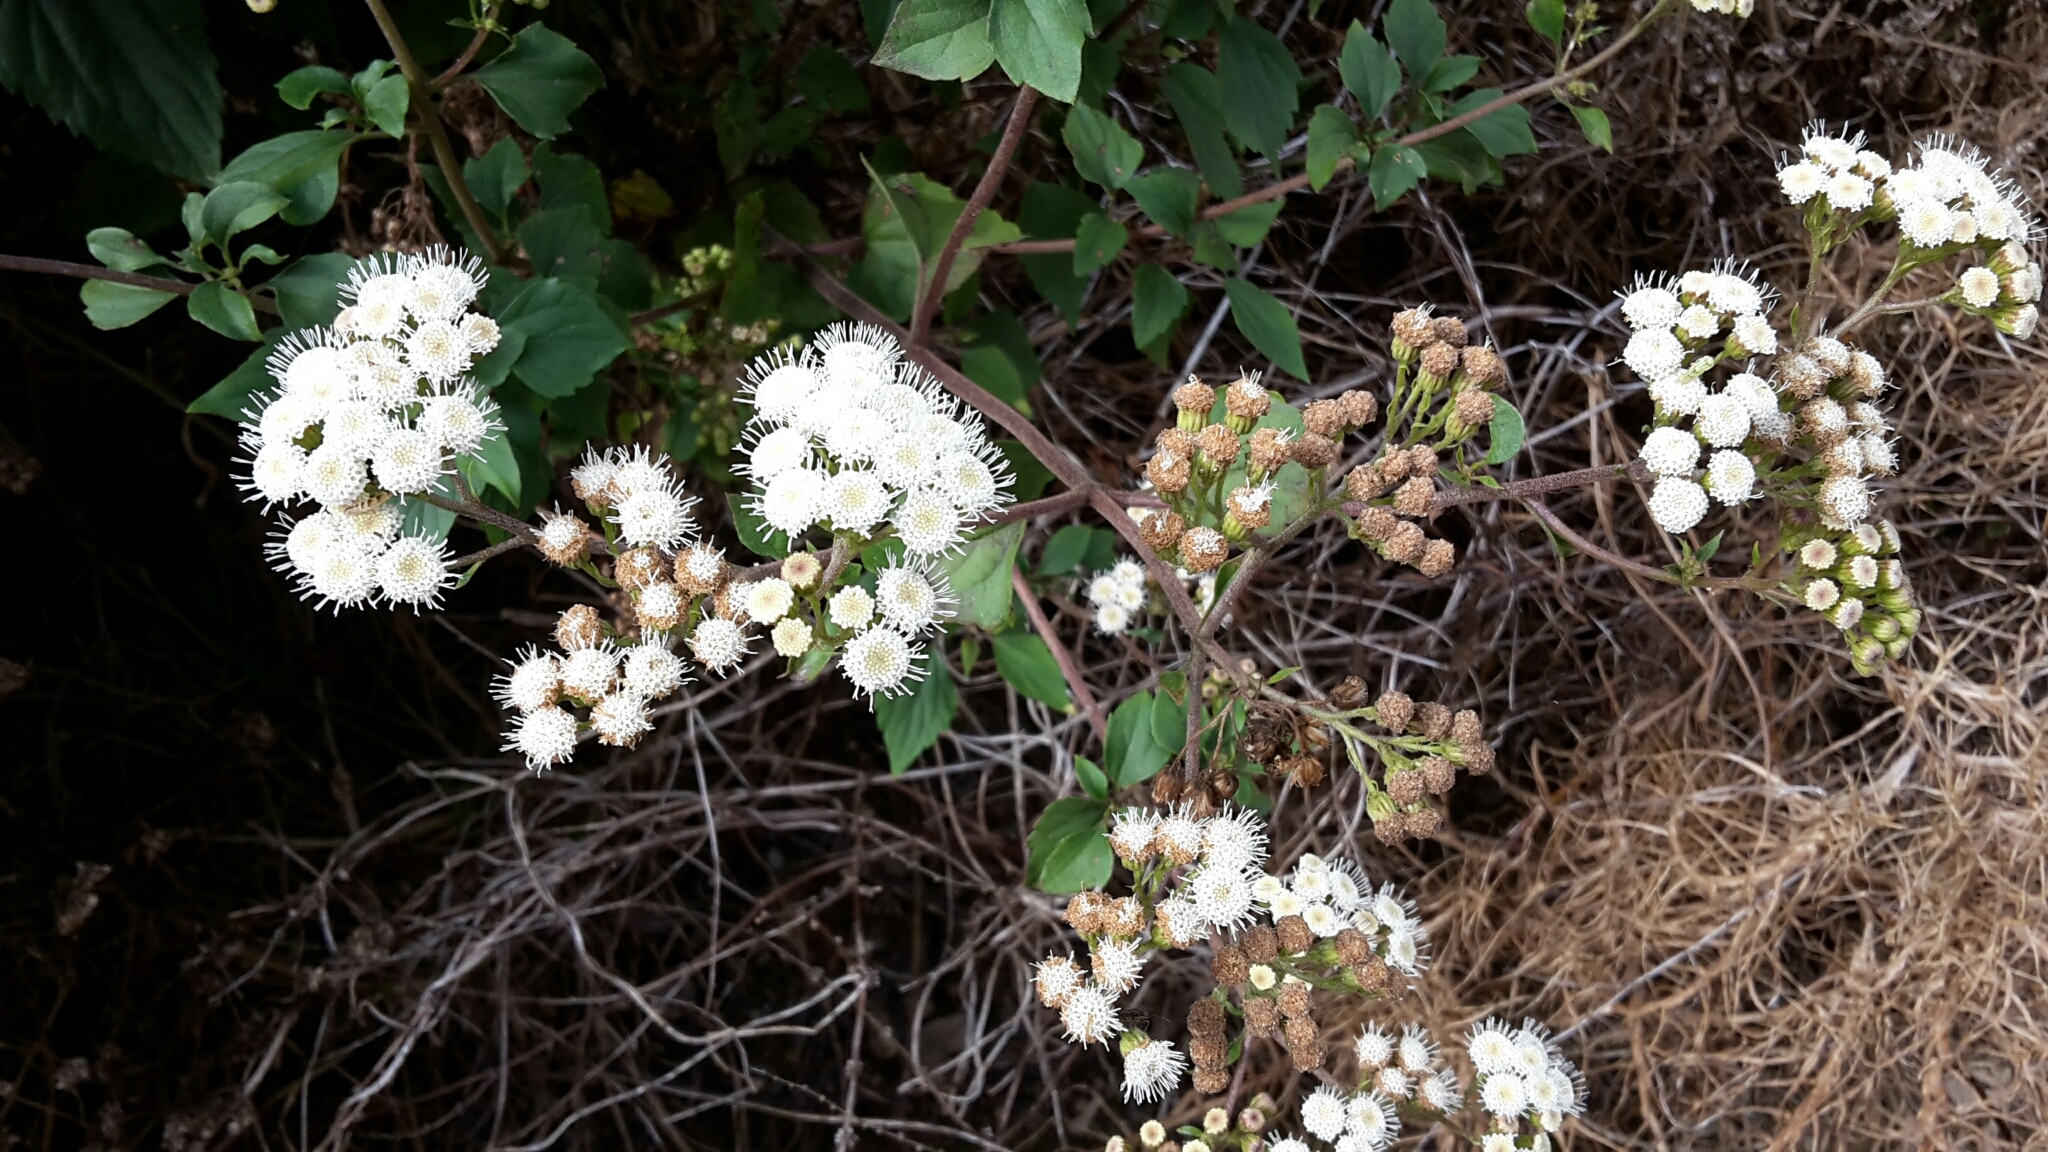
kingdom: Plantae
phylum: Tracheophyta
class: Magnoliopsida
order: Asterales
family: Asteraceae
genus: Ageratina
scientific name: Ageratina riparia
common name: Creeping croftonweed
